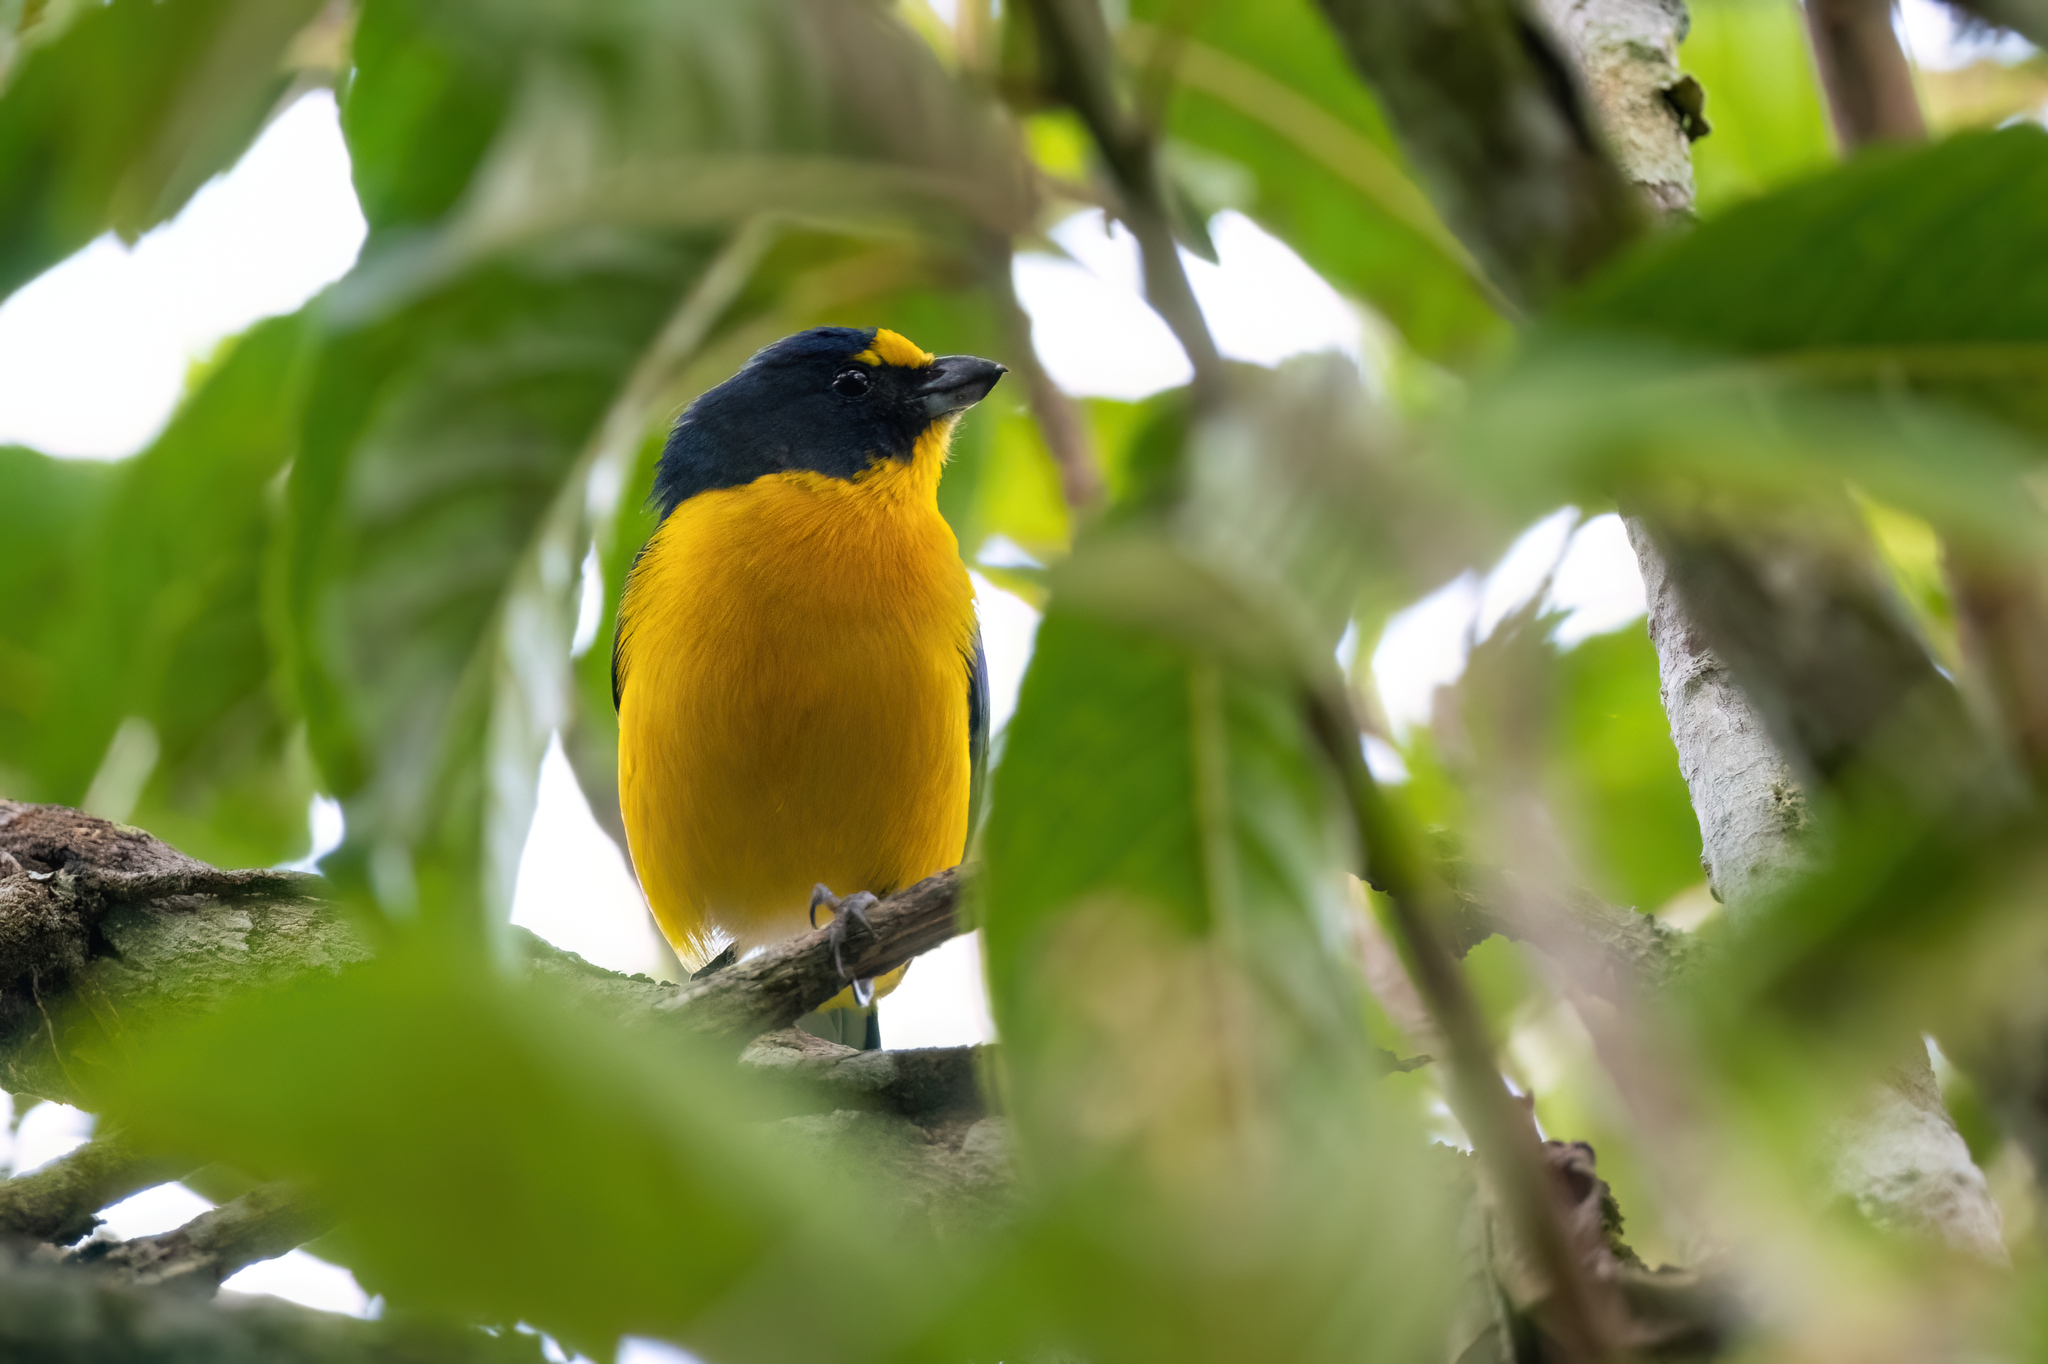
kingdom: Animalia
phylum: Chordata
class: Aves
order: Passeriformes
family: Fringillidae
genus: Euphonia
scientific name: Euphonia hirundinacea
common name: Yellow-throated euphonia
